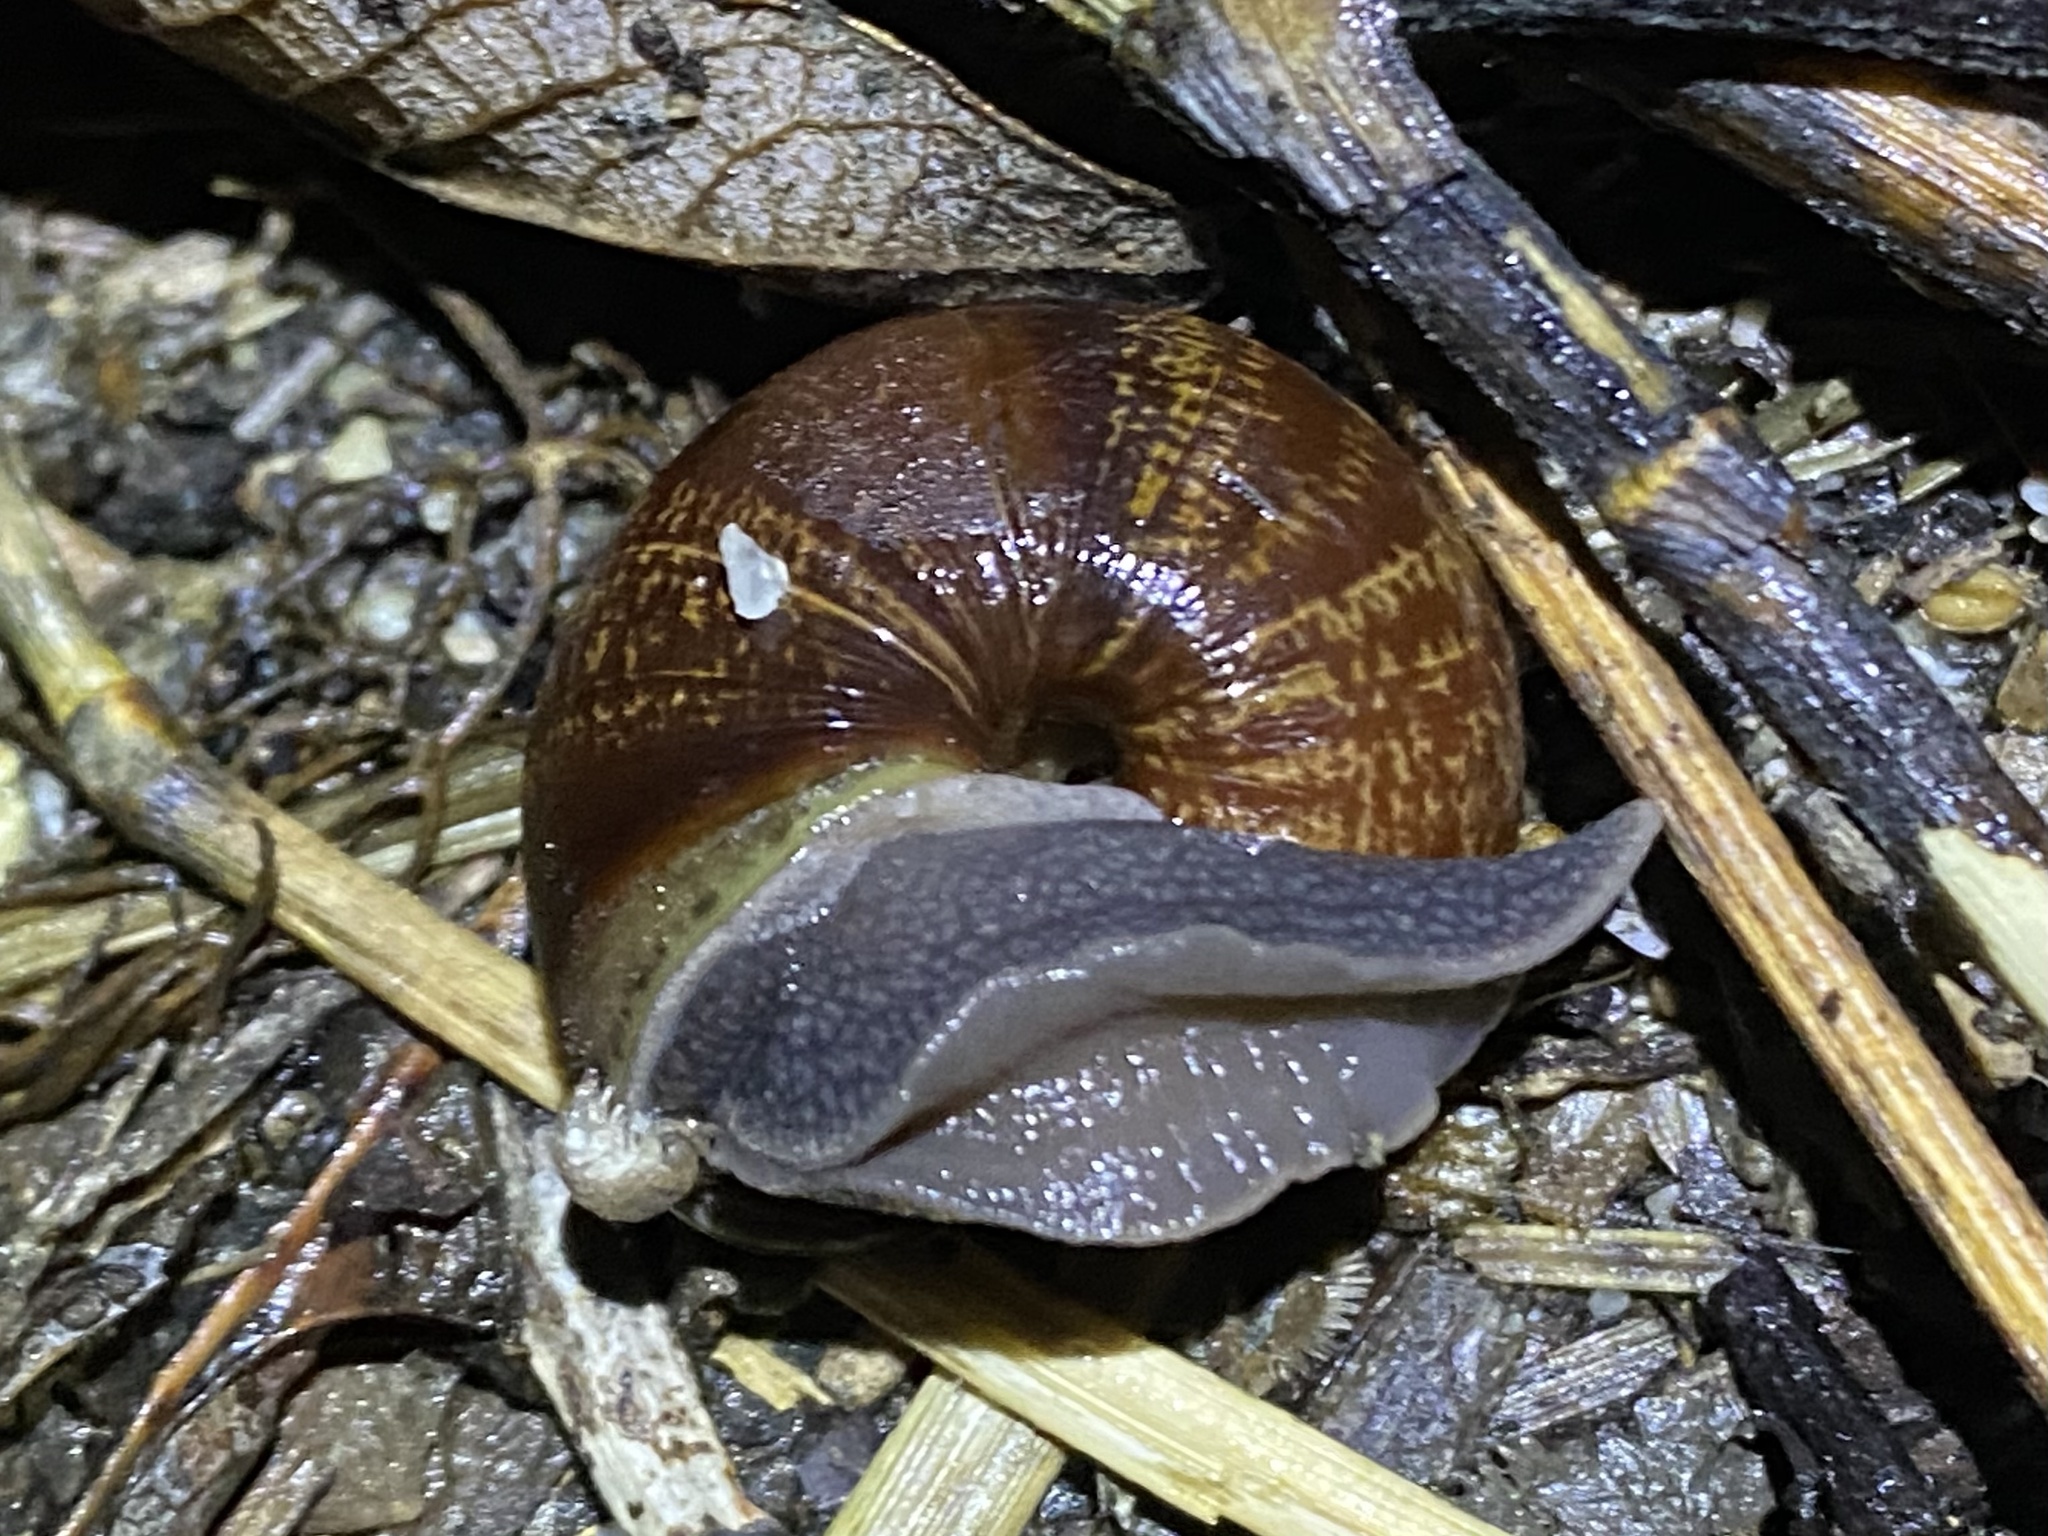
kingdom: Animalia
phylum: Mollusca
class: Gastropoda
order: Stylommatophora
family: Xanthonychidae
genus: Helminthoglypta
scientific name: Helminthoglypta arrosa
